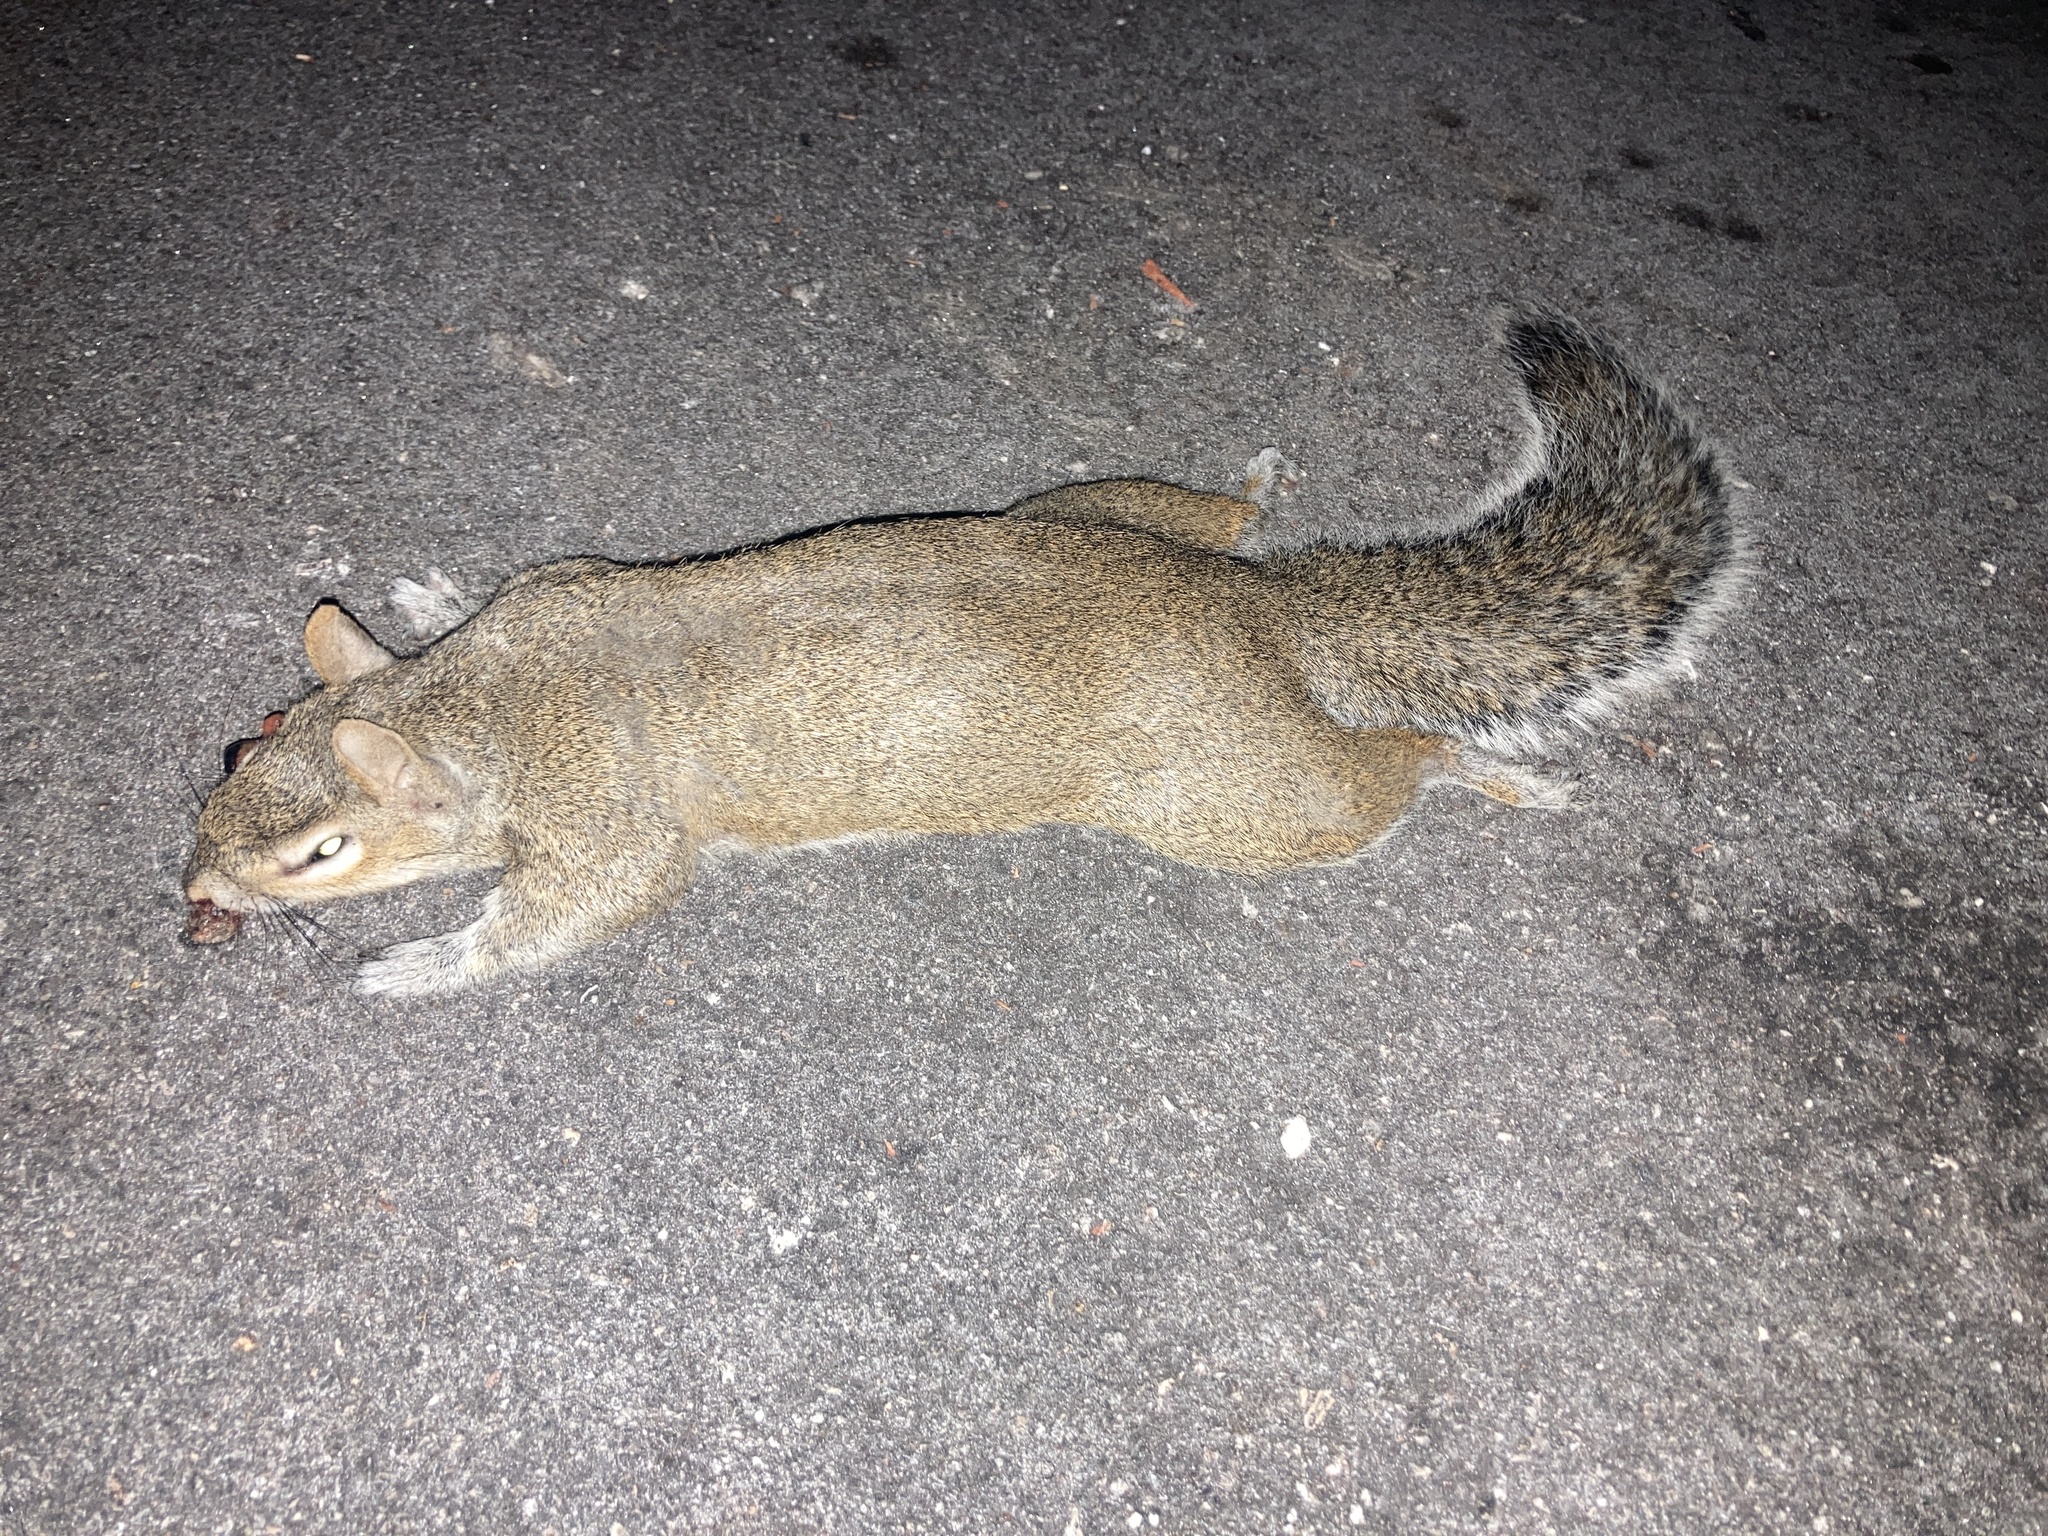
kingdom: Animalia
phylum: Chordata
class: Mammalia
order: Rodentia
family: Sciuridae
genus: Sciurus
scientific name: Sciurus carolinensis
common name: Eastern gray squirrel
